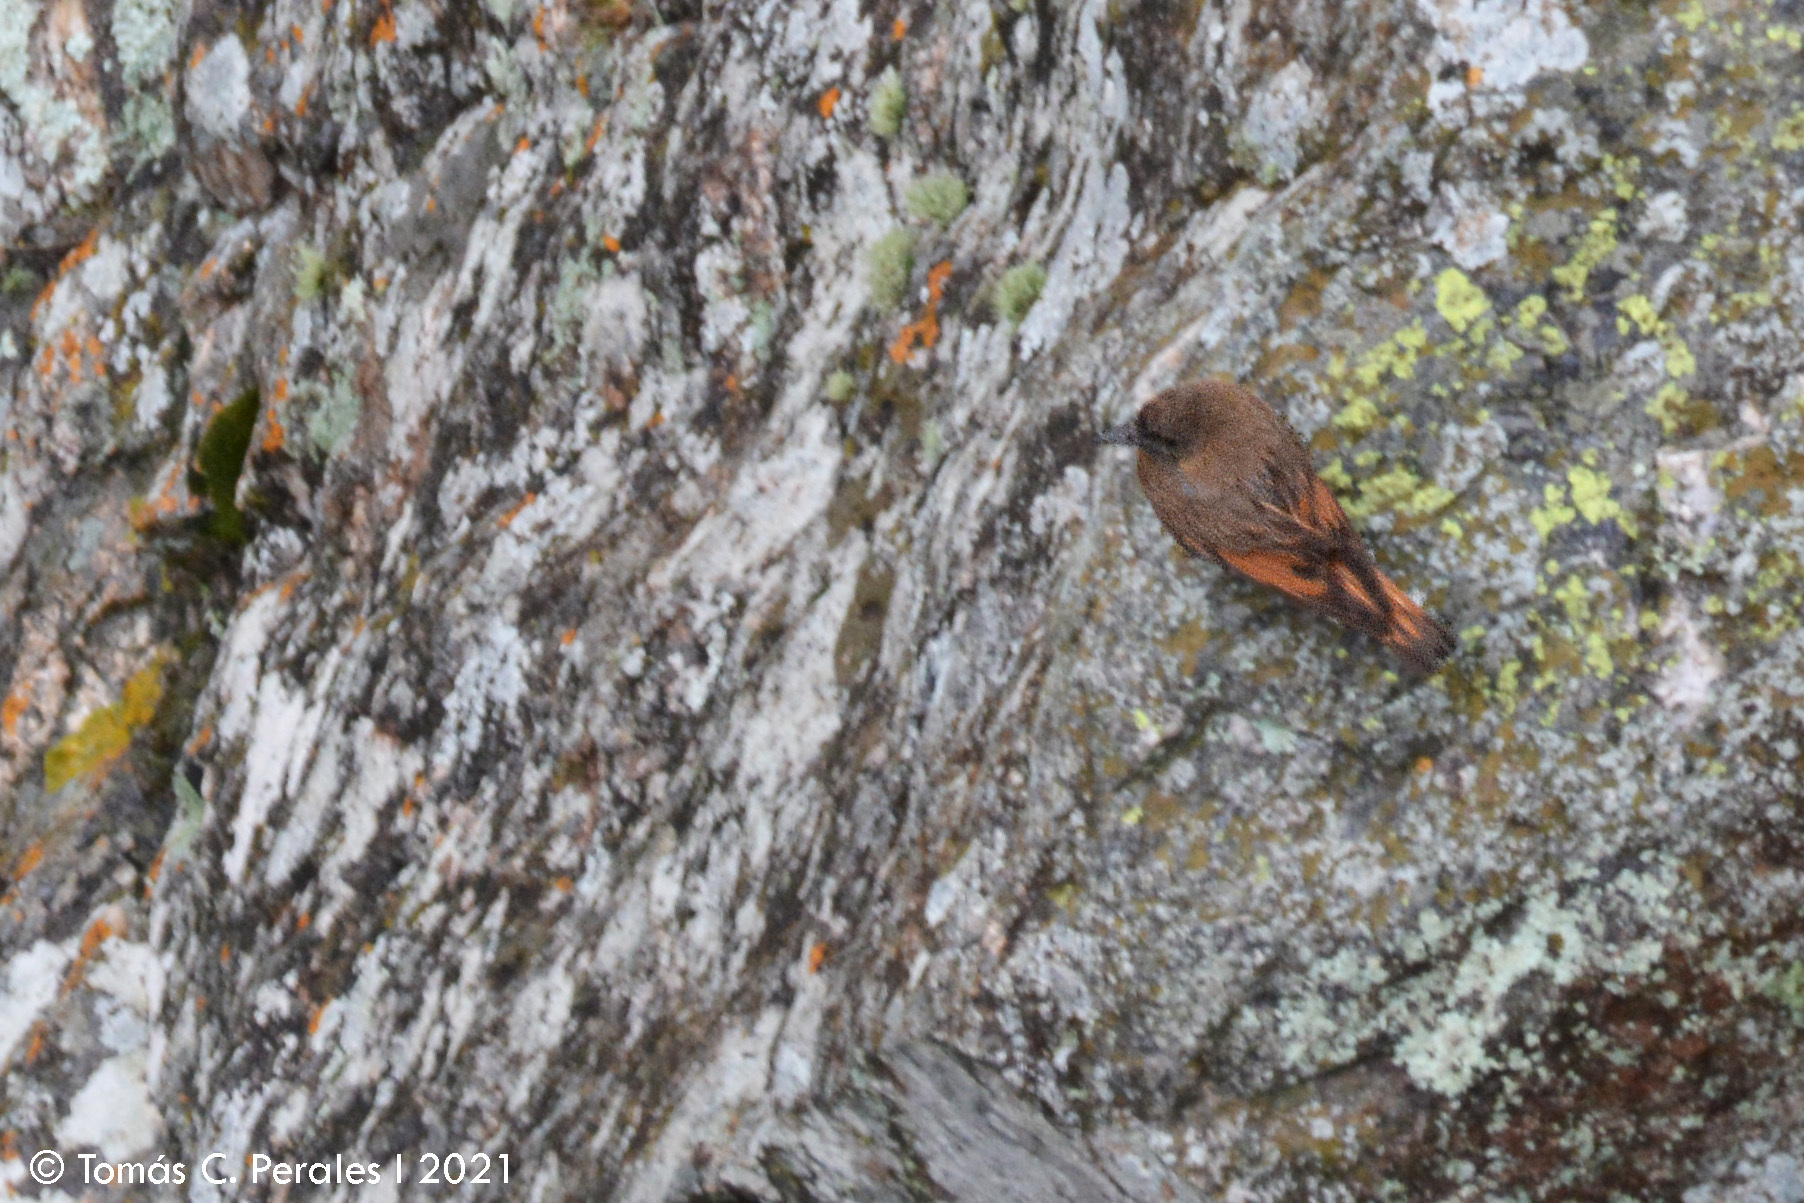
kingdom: Animalia
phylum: Chordata
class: Aves
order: Passeriformes
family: Tyrannidae
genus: Hirundinea
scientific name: Hirundinea ferruginea
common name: Cliff flycatcher
